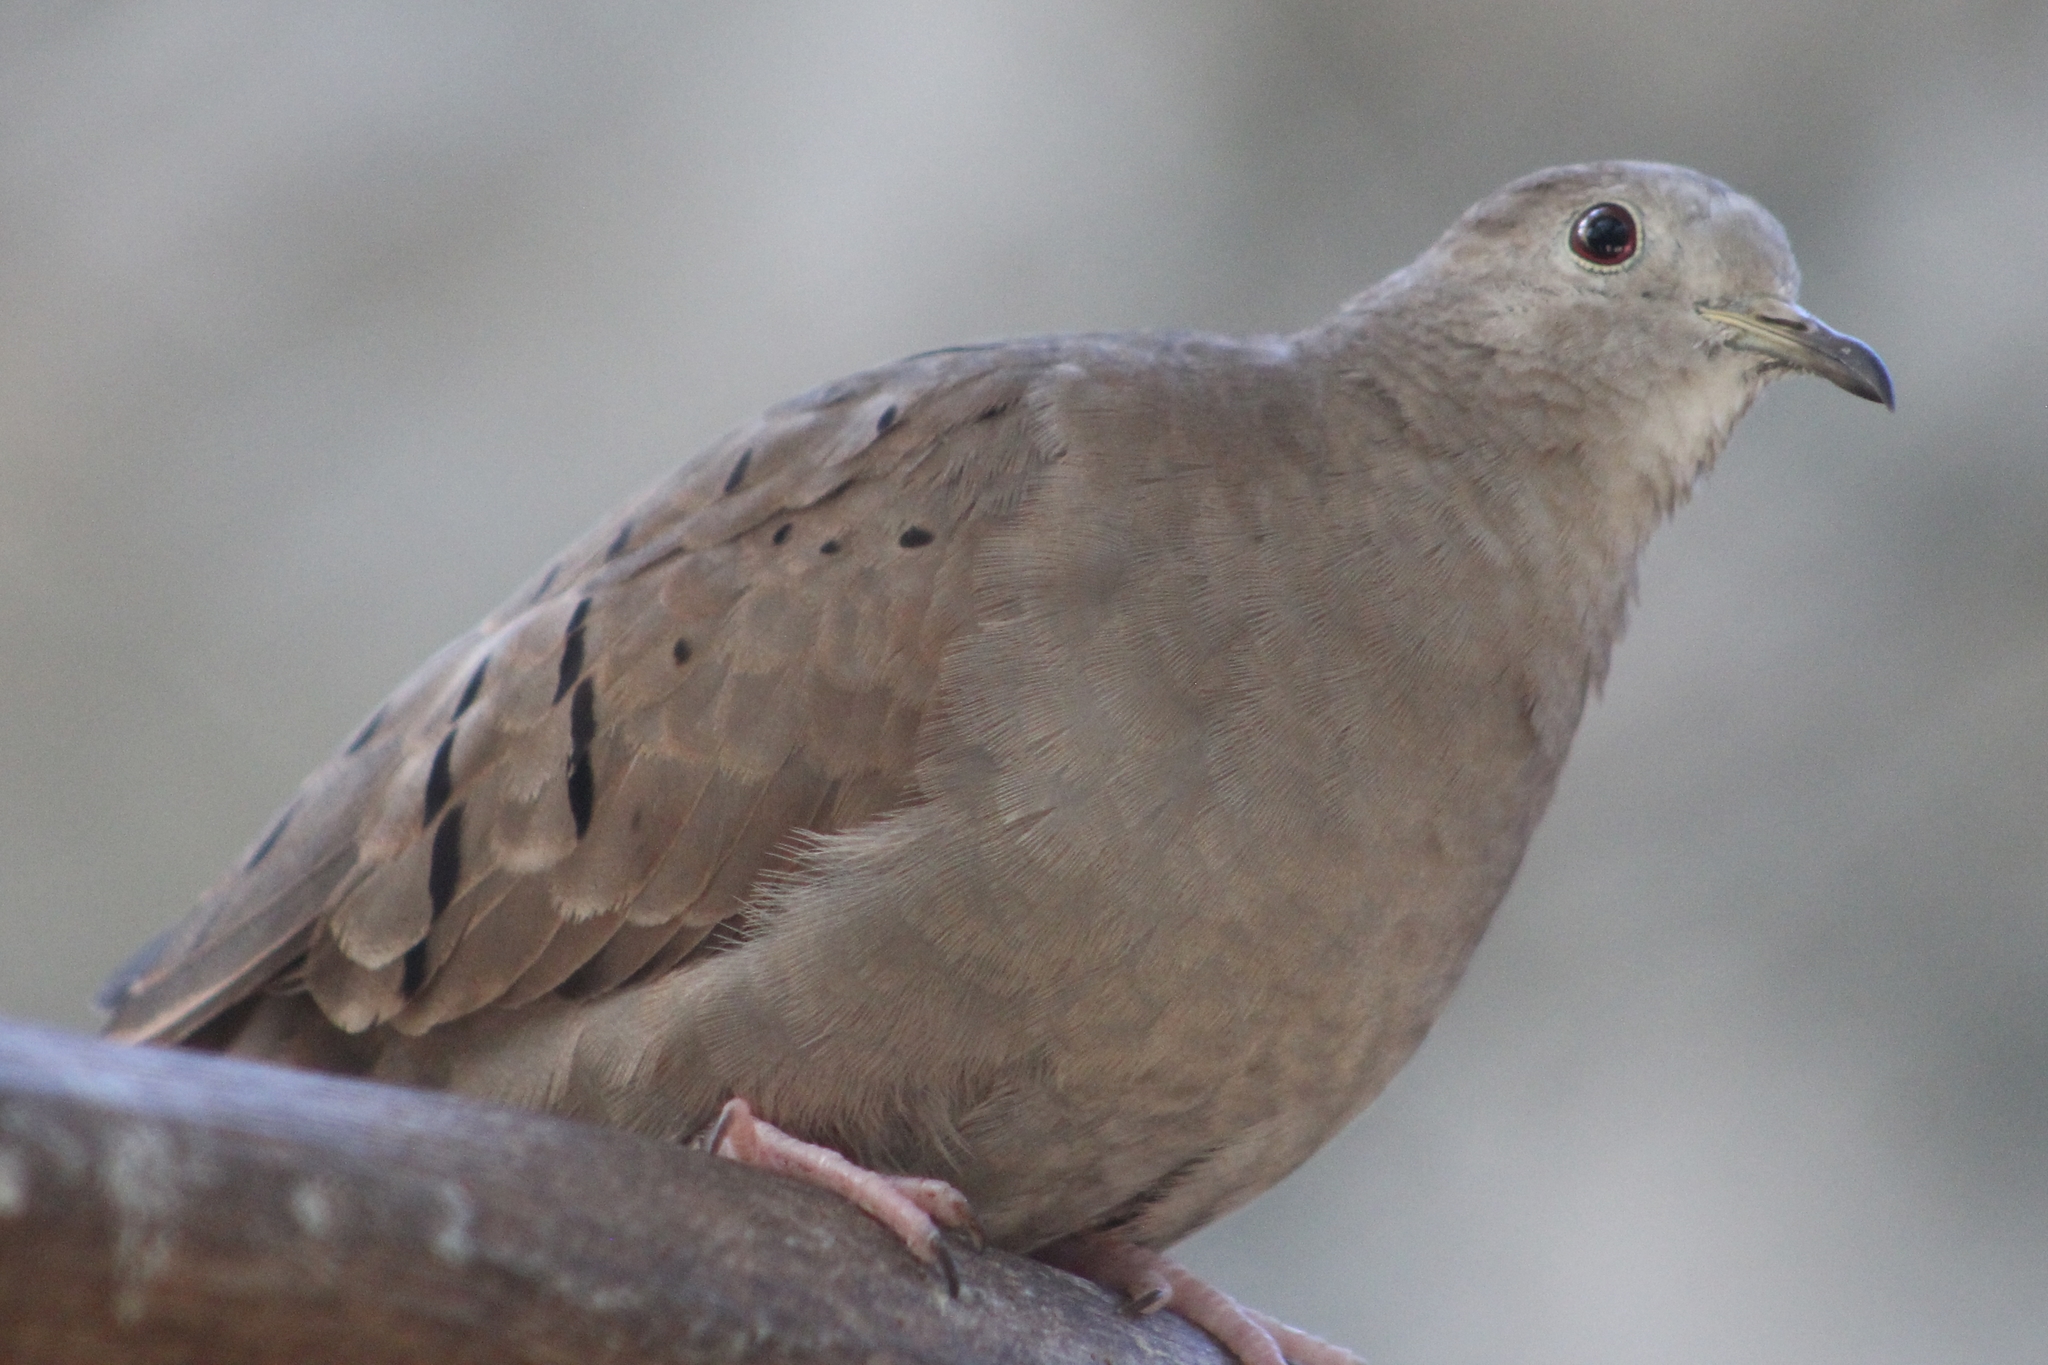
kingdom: Animalia
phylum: Chordata
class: Aves
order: Columbiformes
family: Columbidae
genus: Columbina
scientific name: Columbina talpacoti
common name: Ruddy ground dove
